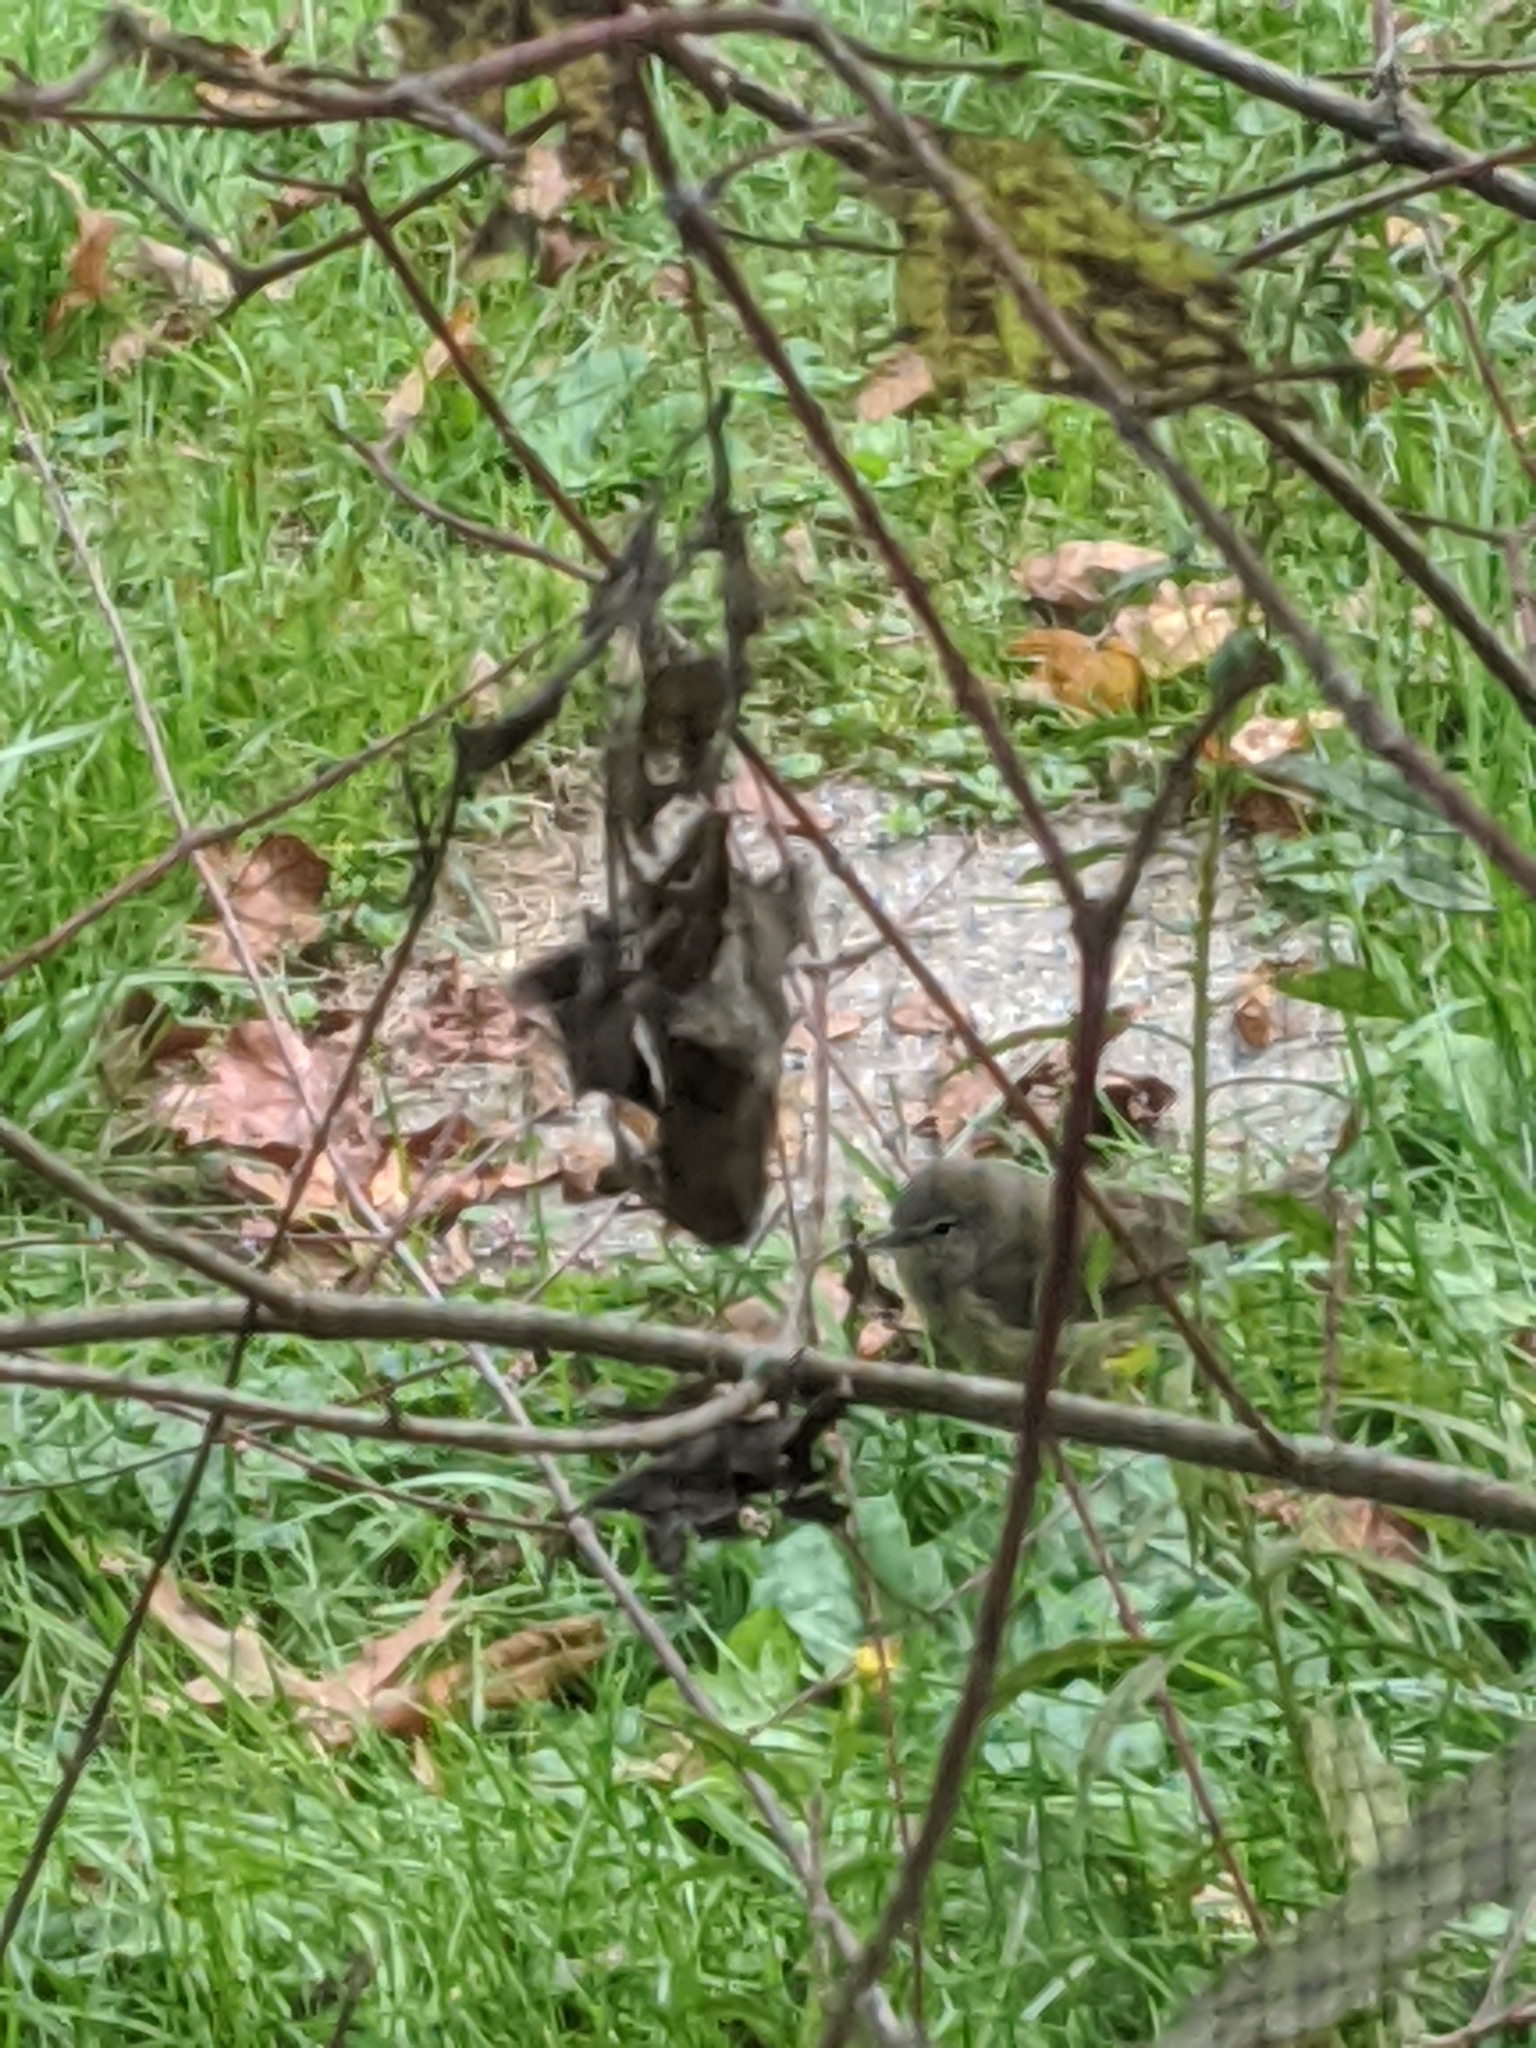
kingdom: Animalia
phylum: Chordata
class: Aves
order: Passeriformes
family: Parulidae
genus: Leiothlypis
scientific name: Leiothlypis celata
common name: Orange-crowned warbler
